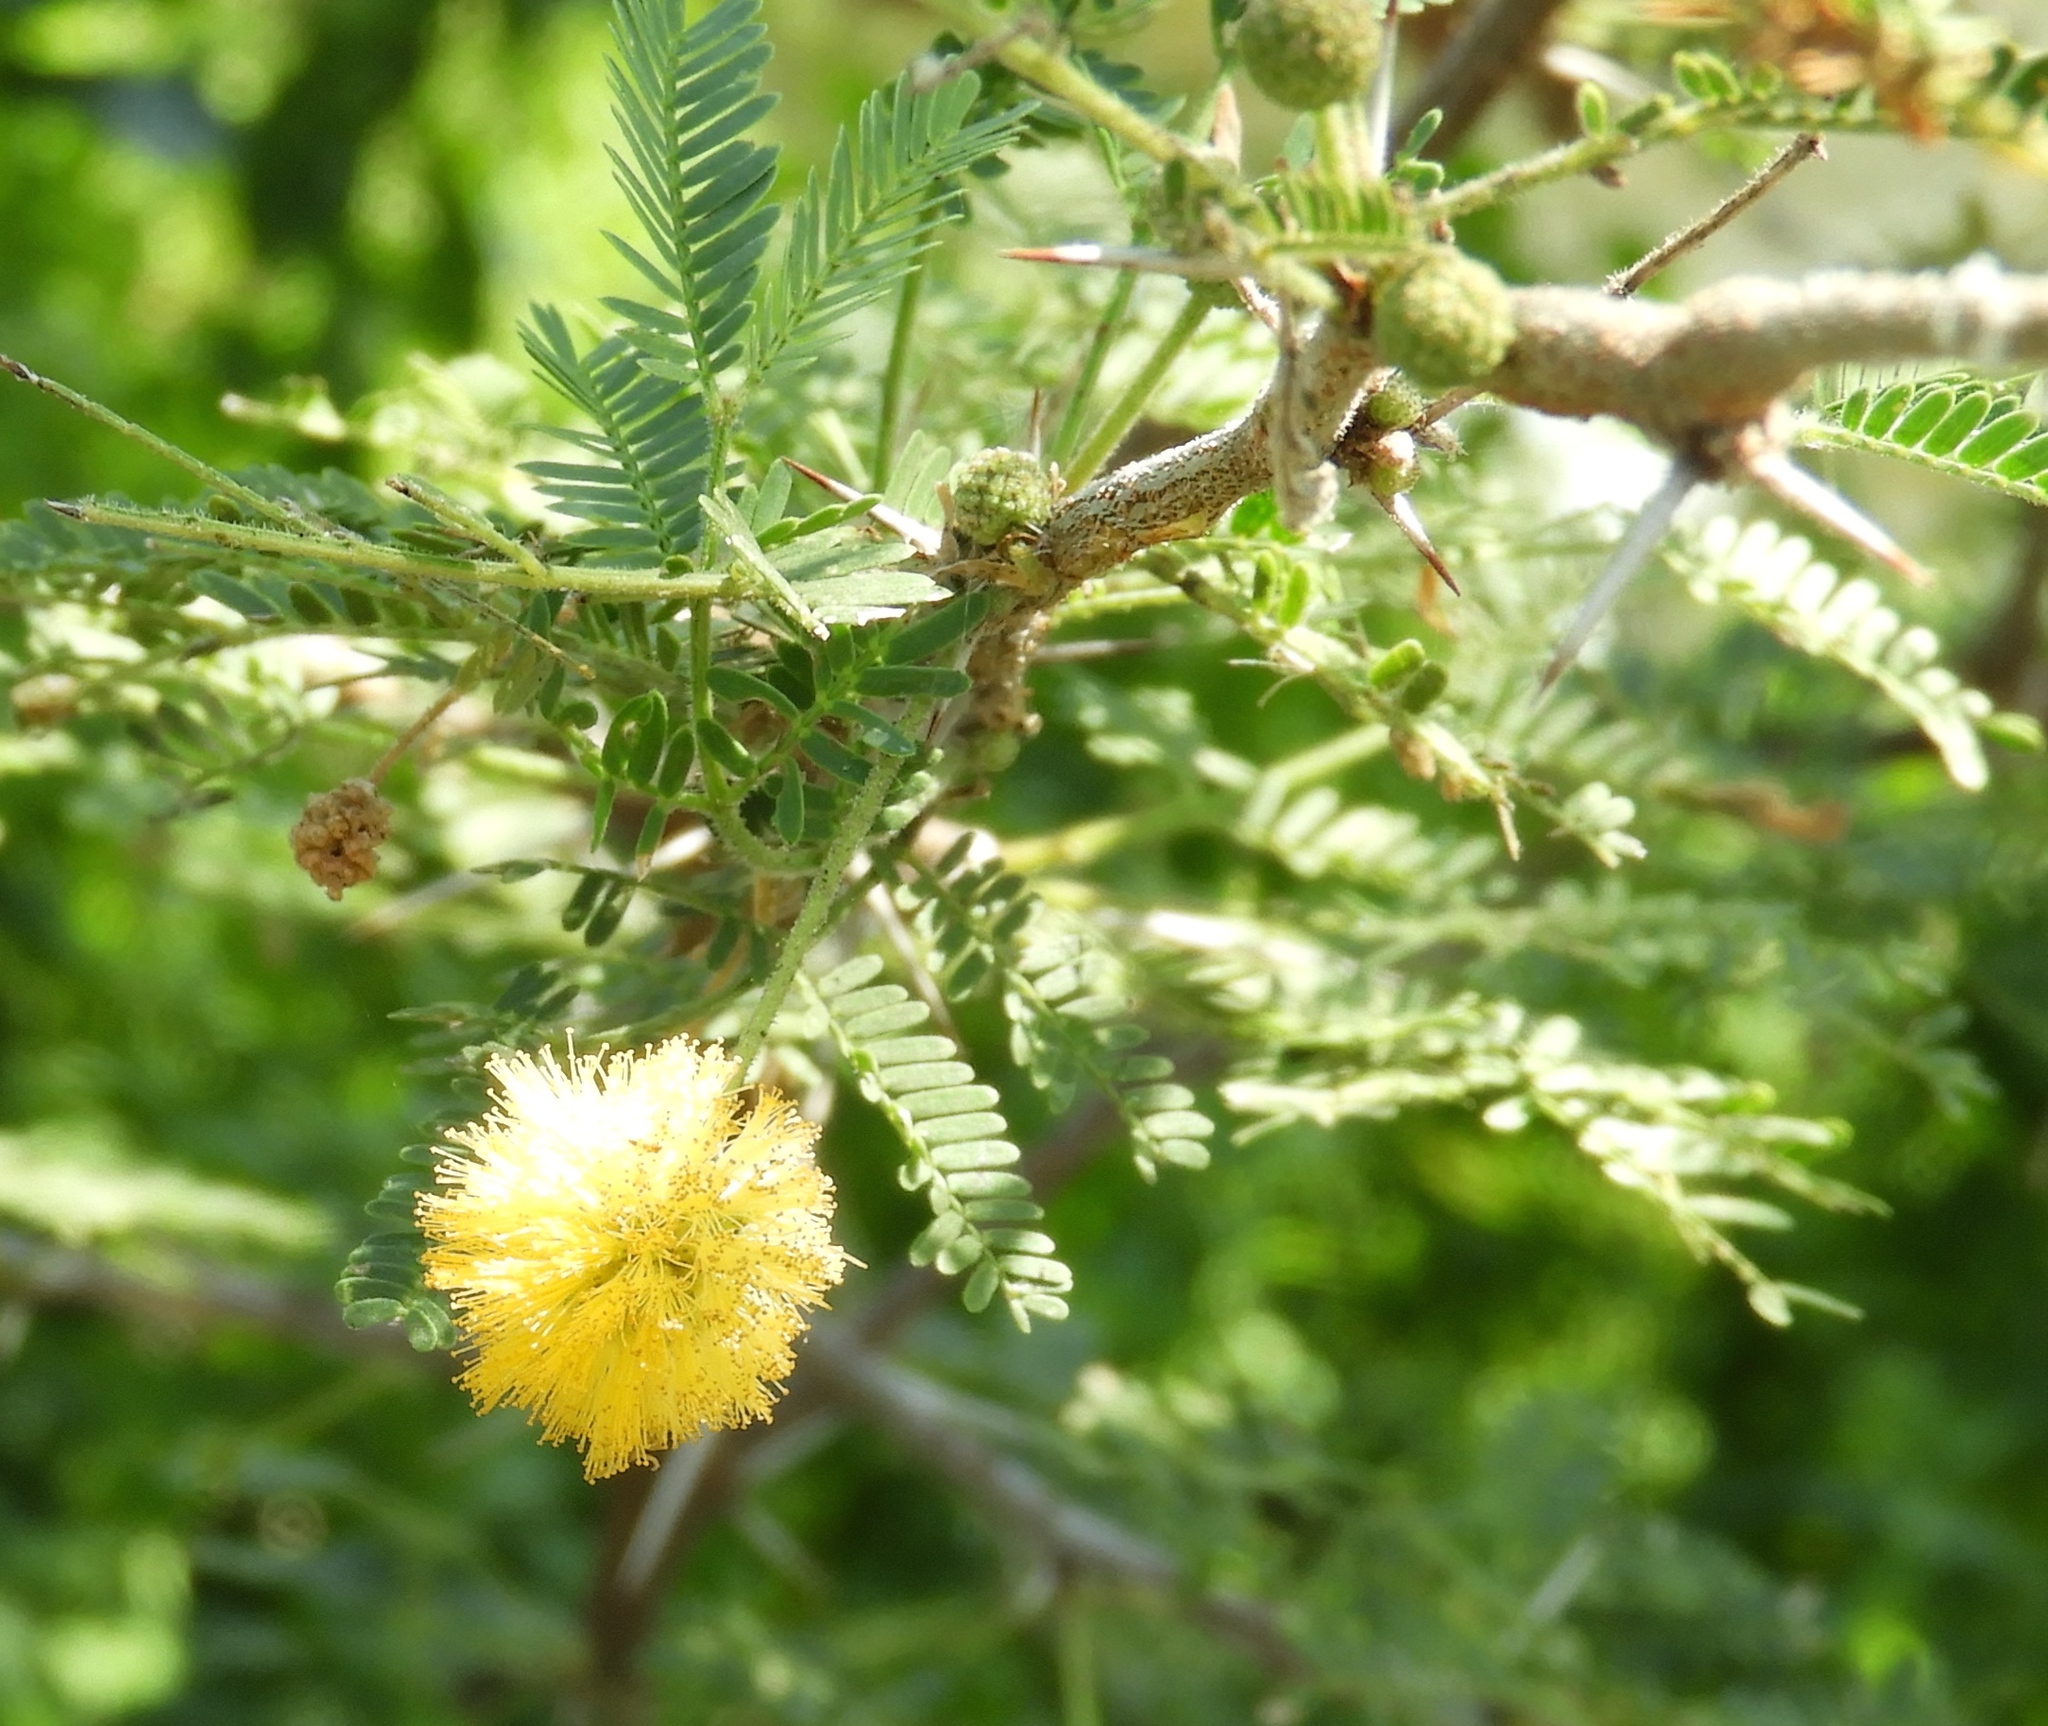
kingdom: Plantae
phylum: Tracheophyta
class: Magnoliopsida
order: Fabales
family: Fabaceae
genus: Vachellia
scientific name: Vachellia farnesiana
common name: Sweet acacia
